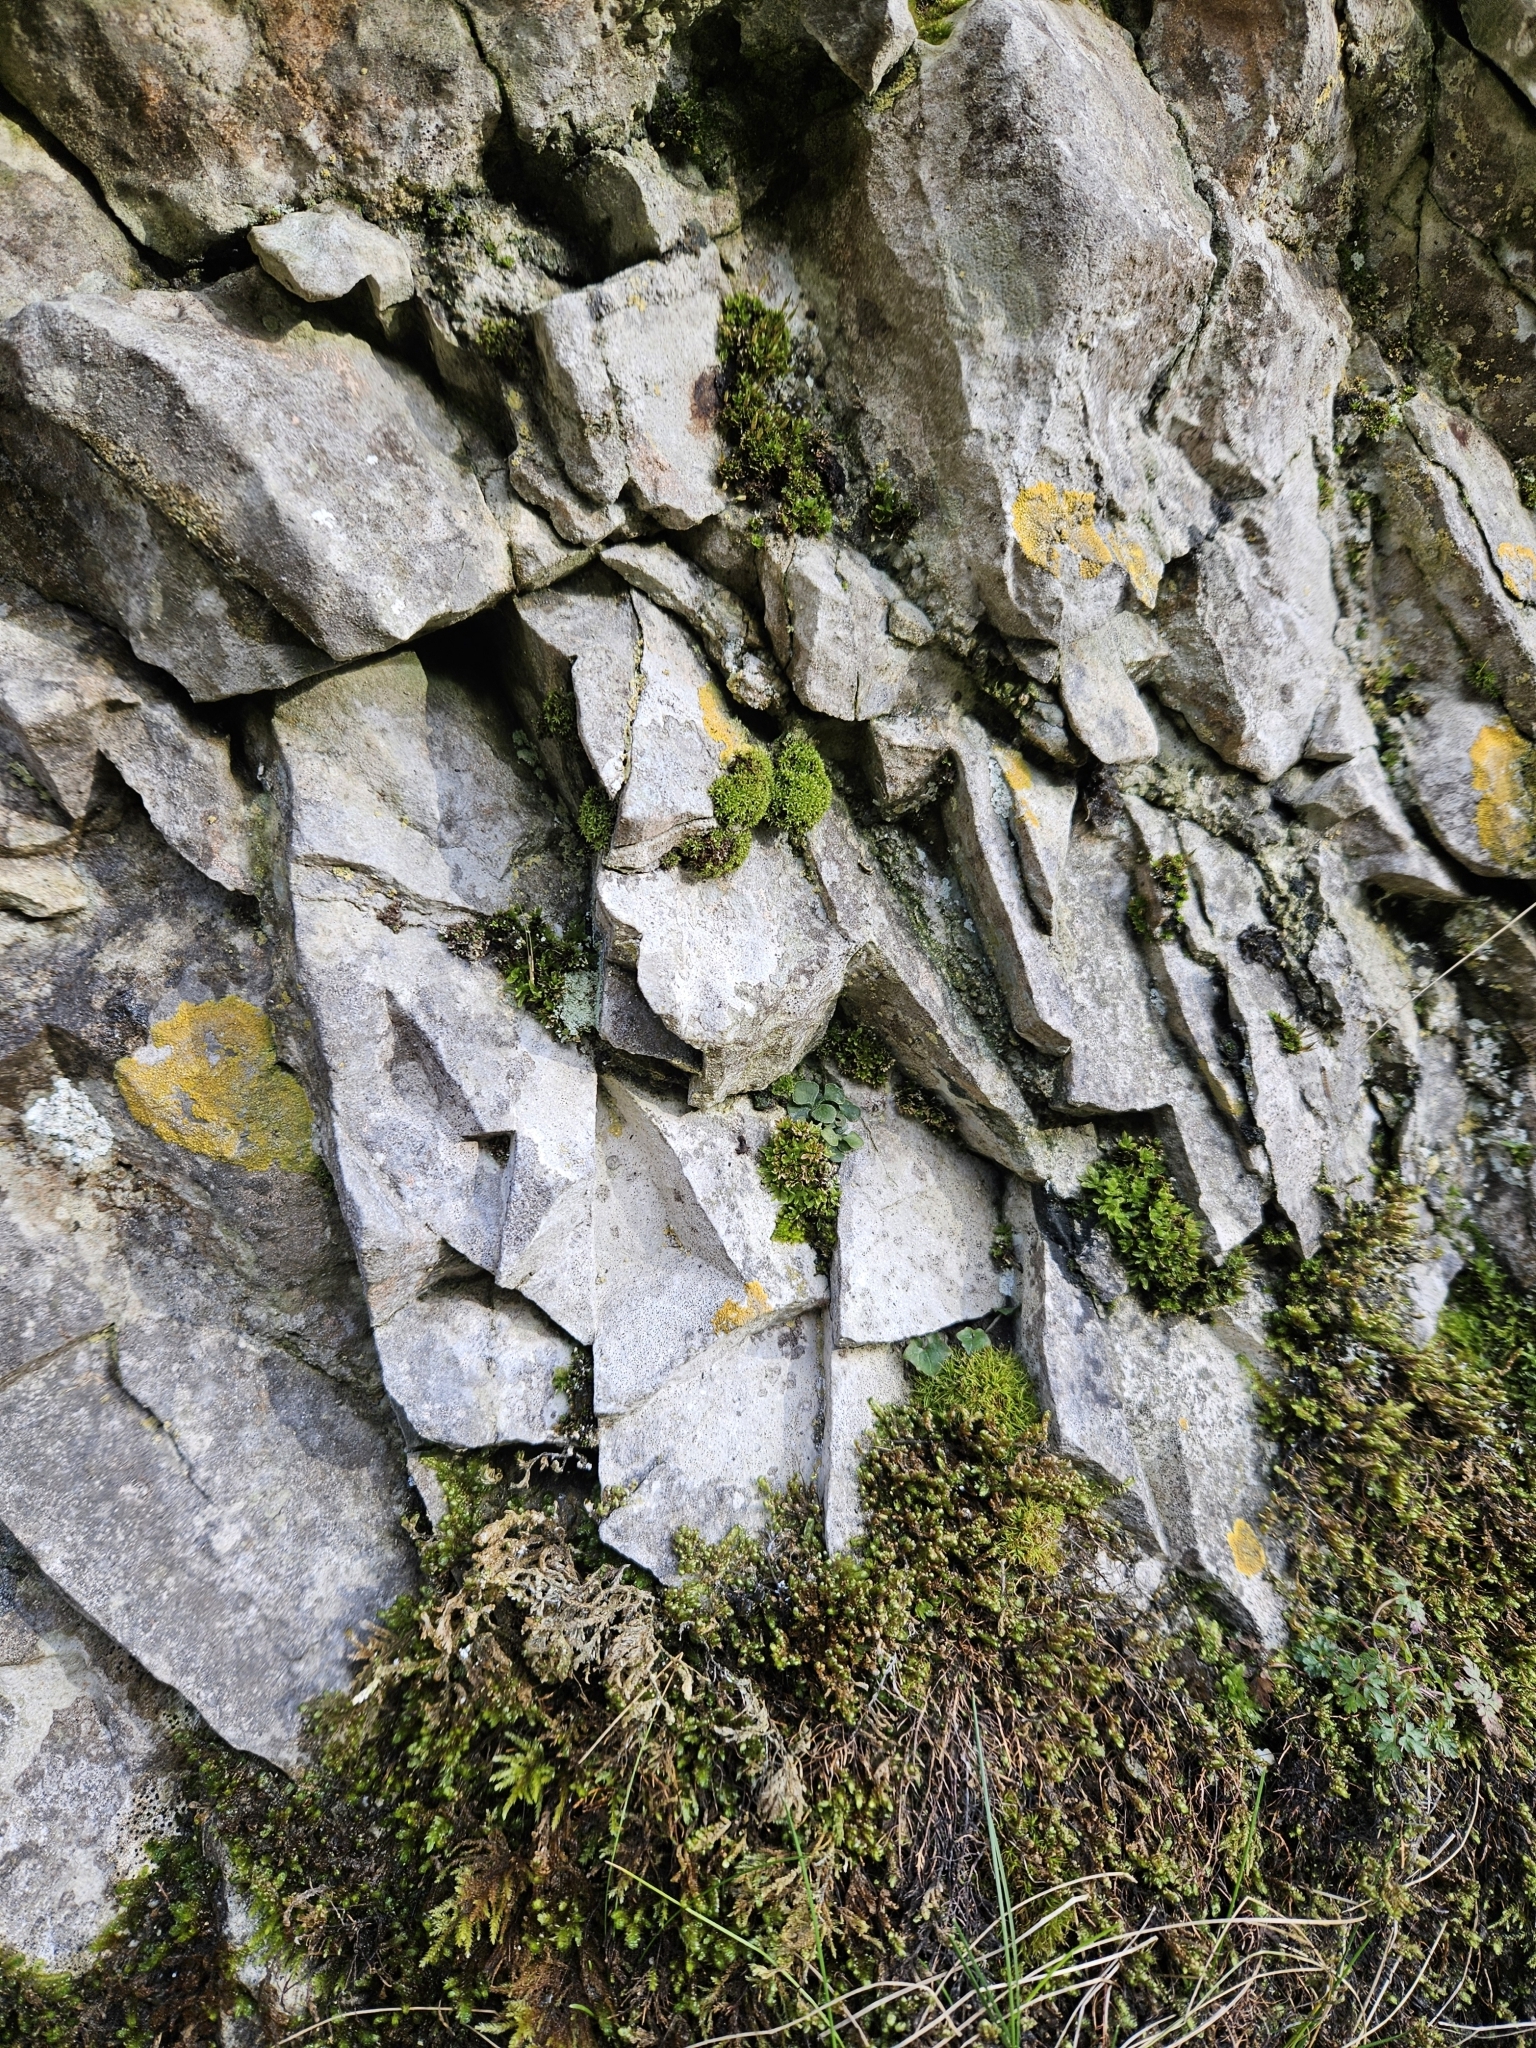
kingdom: Plantae
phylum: Bryophyta
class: Bryopsida
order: Orthotrichales
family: Orthotrichaceae
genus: Zygodon
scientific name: Zygodon stirtonii
